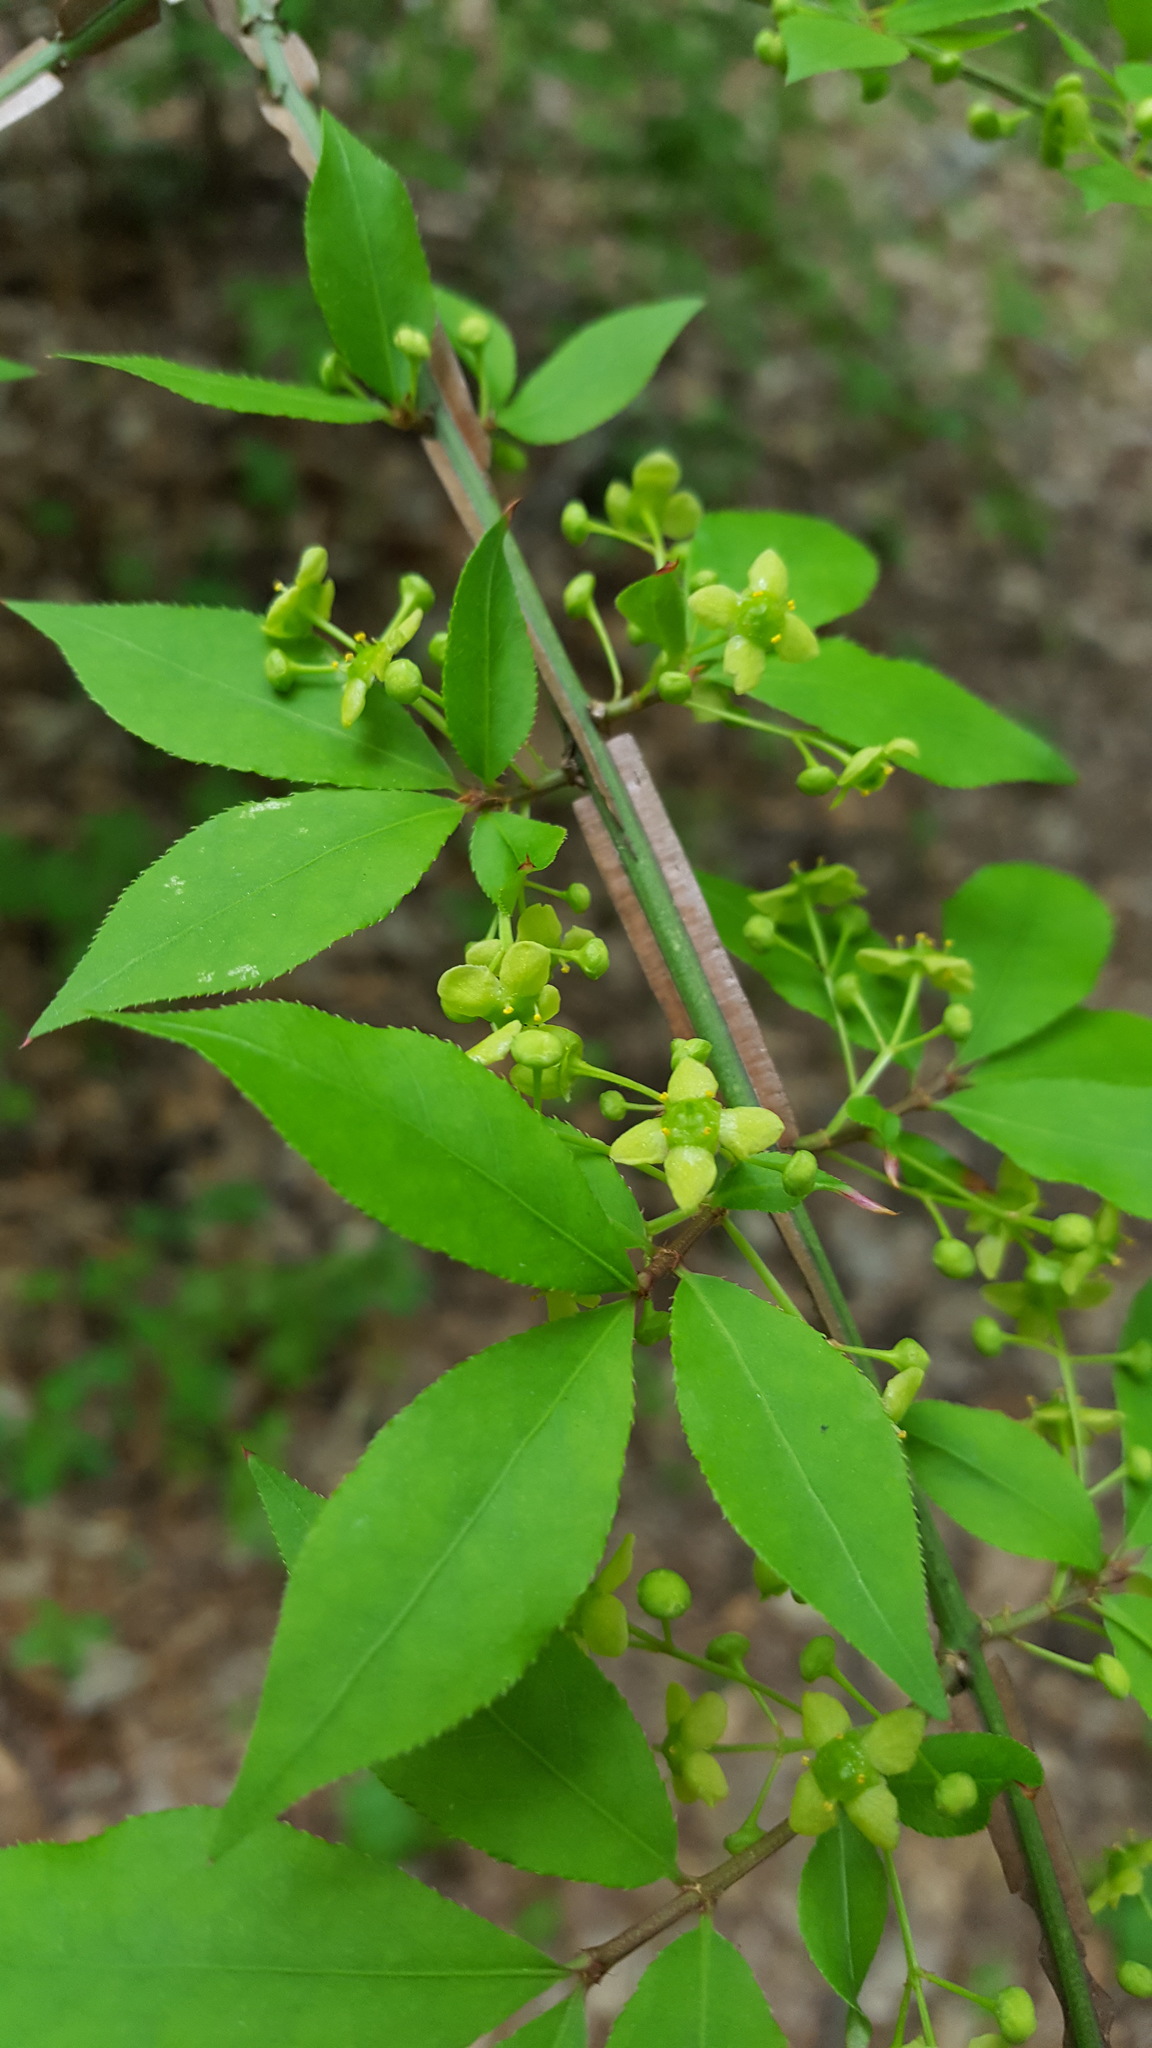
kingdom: Plantae
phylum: Tracheophyta
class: Magnoliopsida
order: Celastrales
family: Celastraceae
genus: Euonymus
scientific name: Euonymus alatus
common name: Winged euonymus
